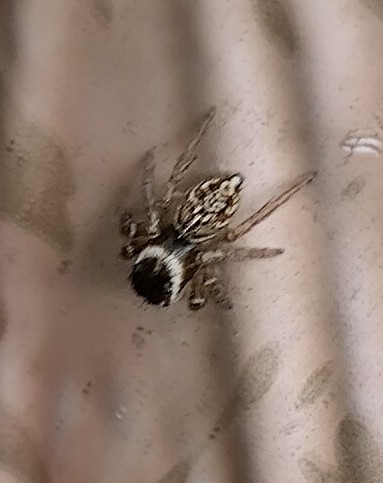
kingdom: Animalia
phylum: Arthropoda
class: Arachnida
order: Araneae
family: Salticidae
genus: Maratus
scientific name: Maratus griseus
